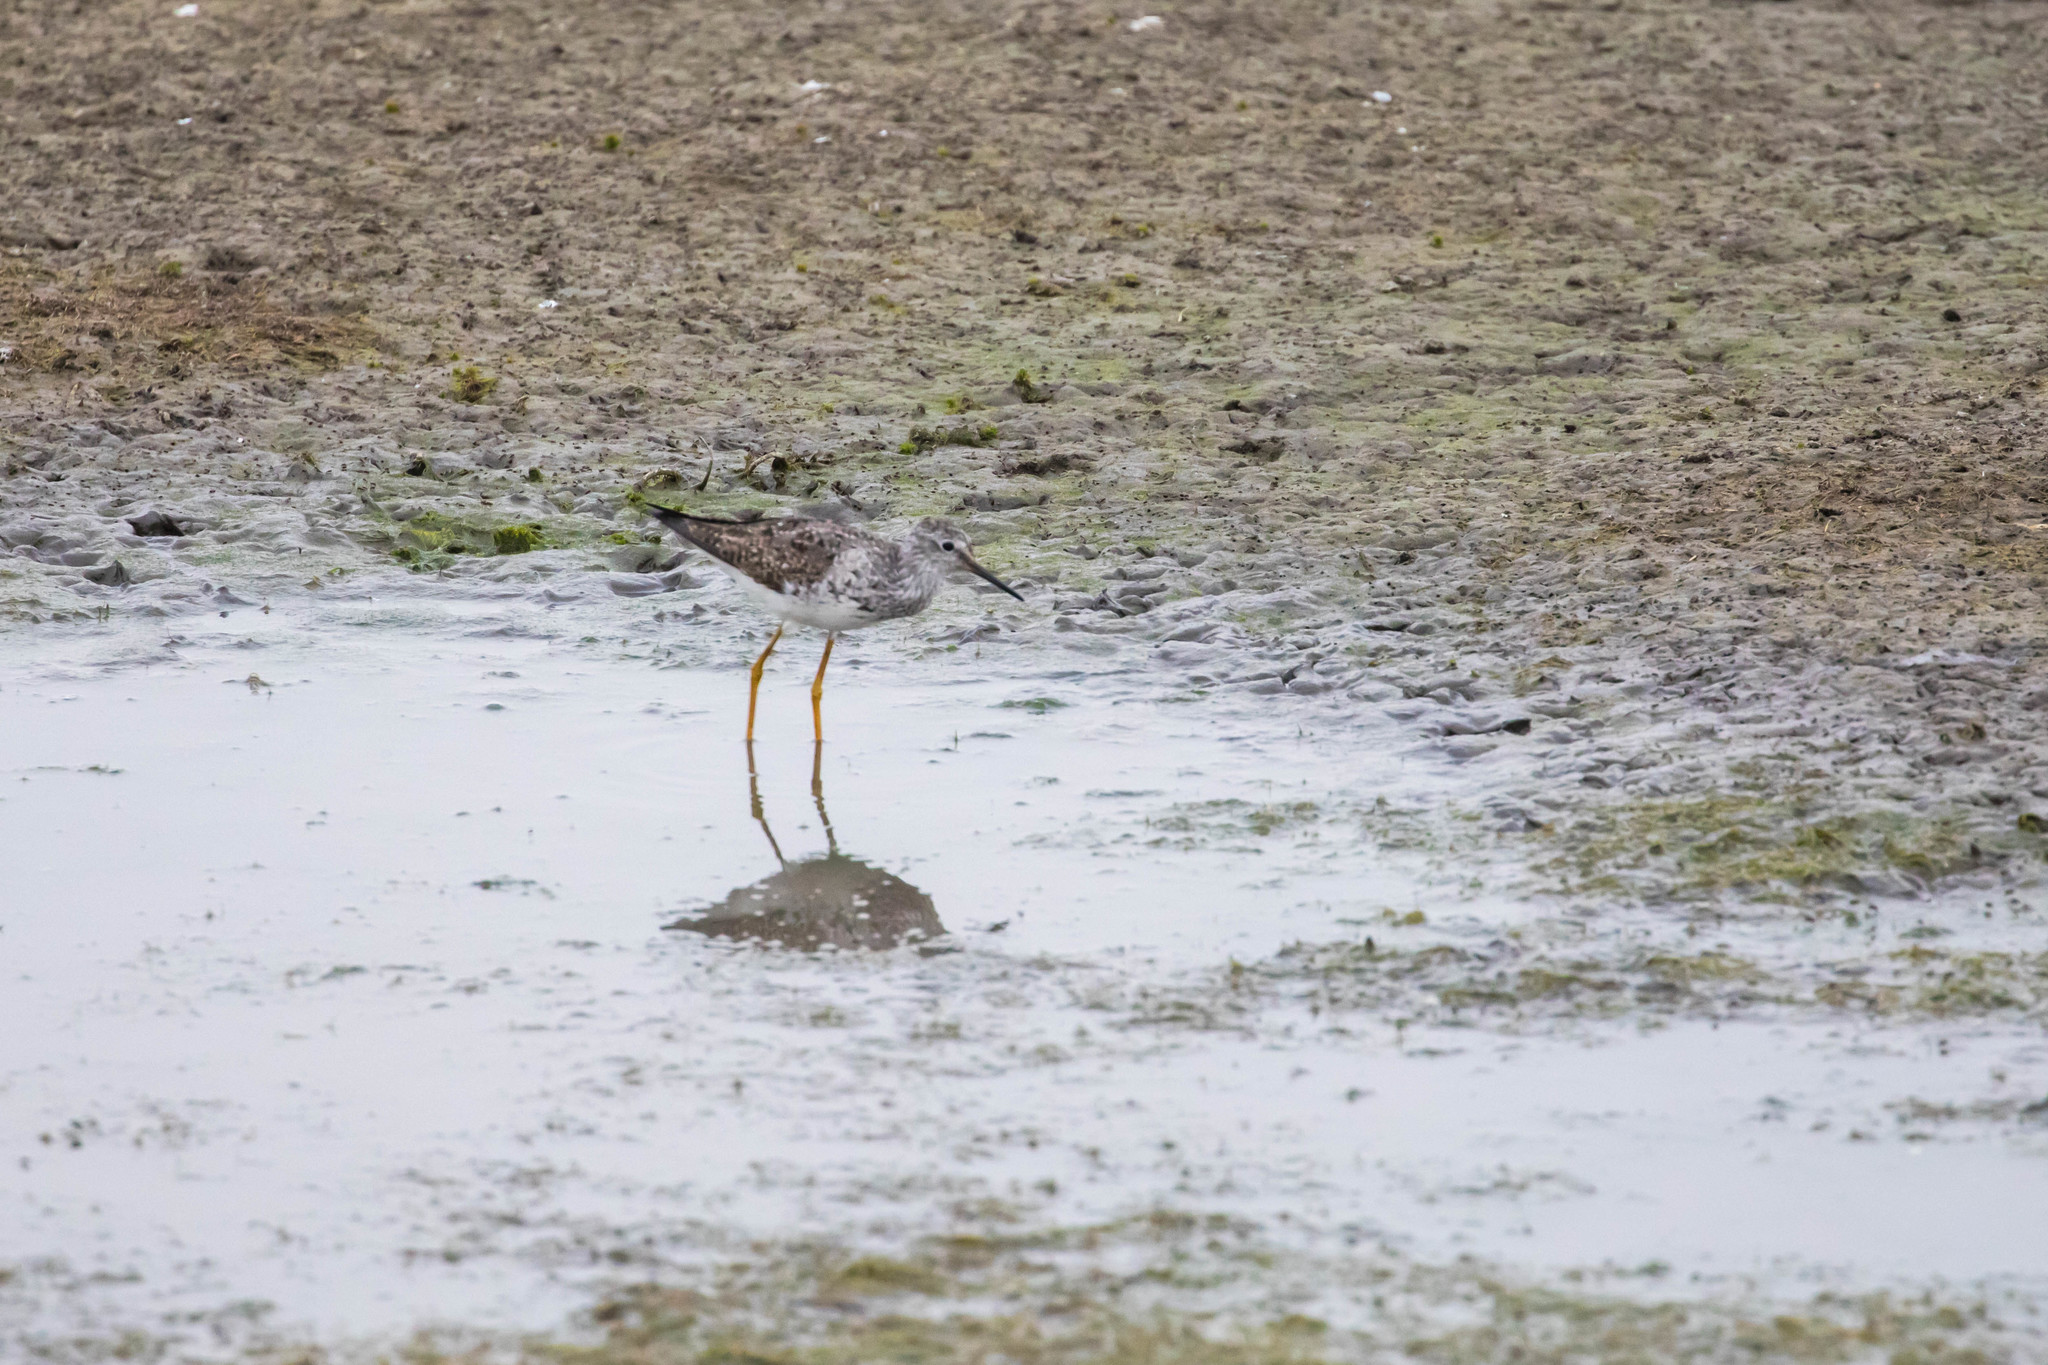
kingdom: Animalia
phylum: Chordata
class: Aves
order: Charadriiformes
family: Scolopacidae
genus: Tringa
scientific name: Tringa melanoleuca
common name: Greater yellowlegs
